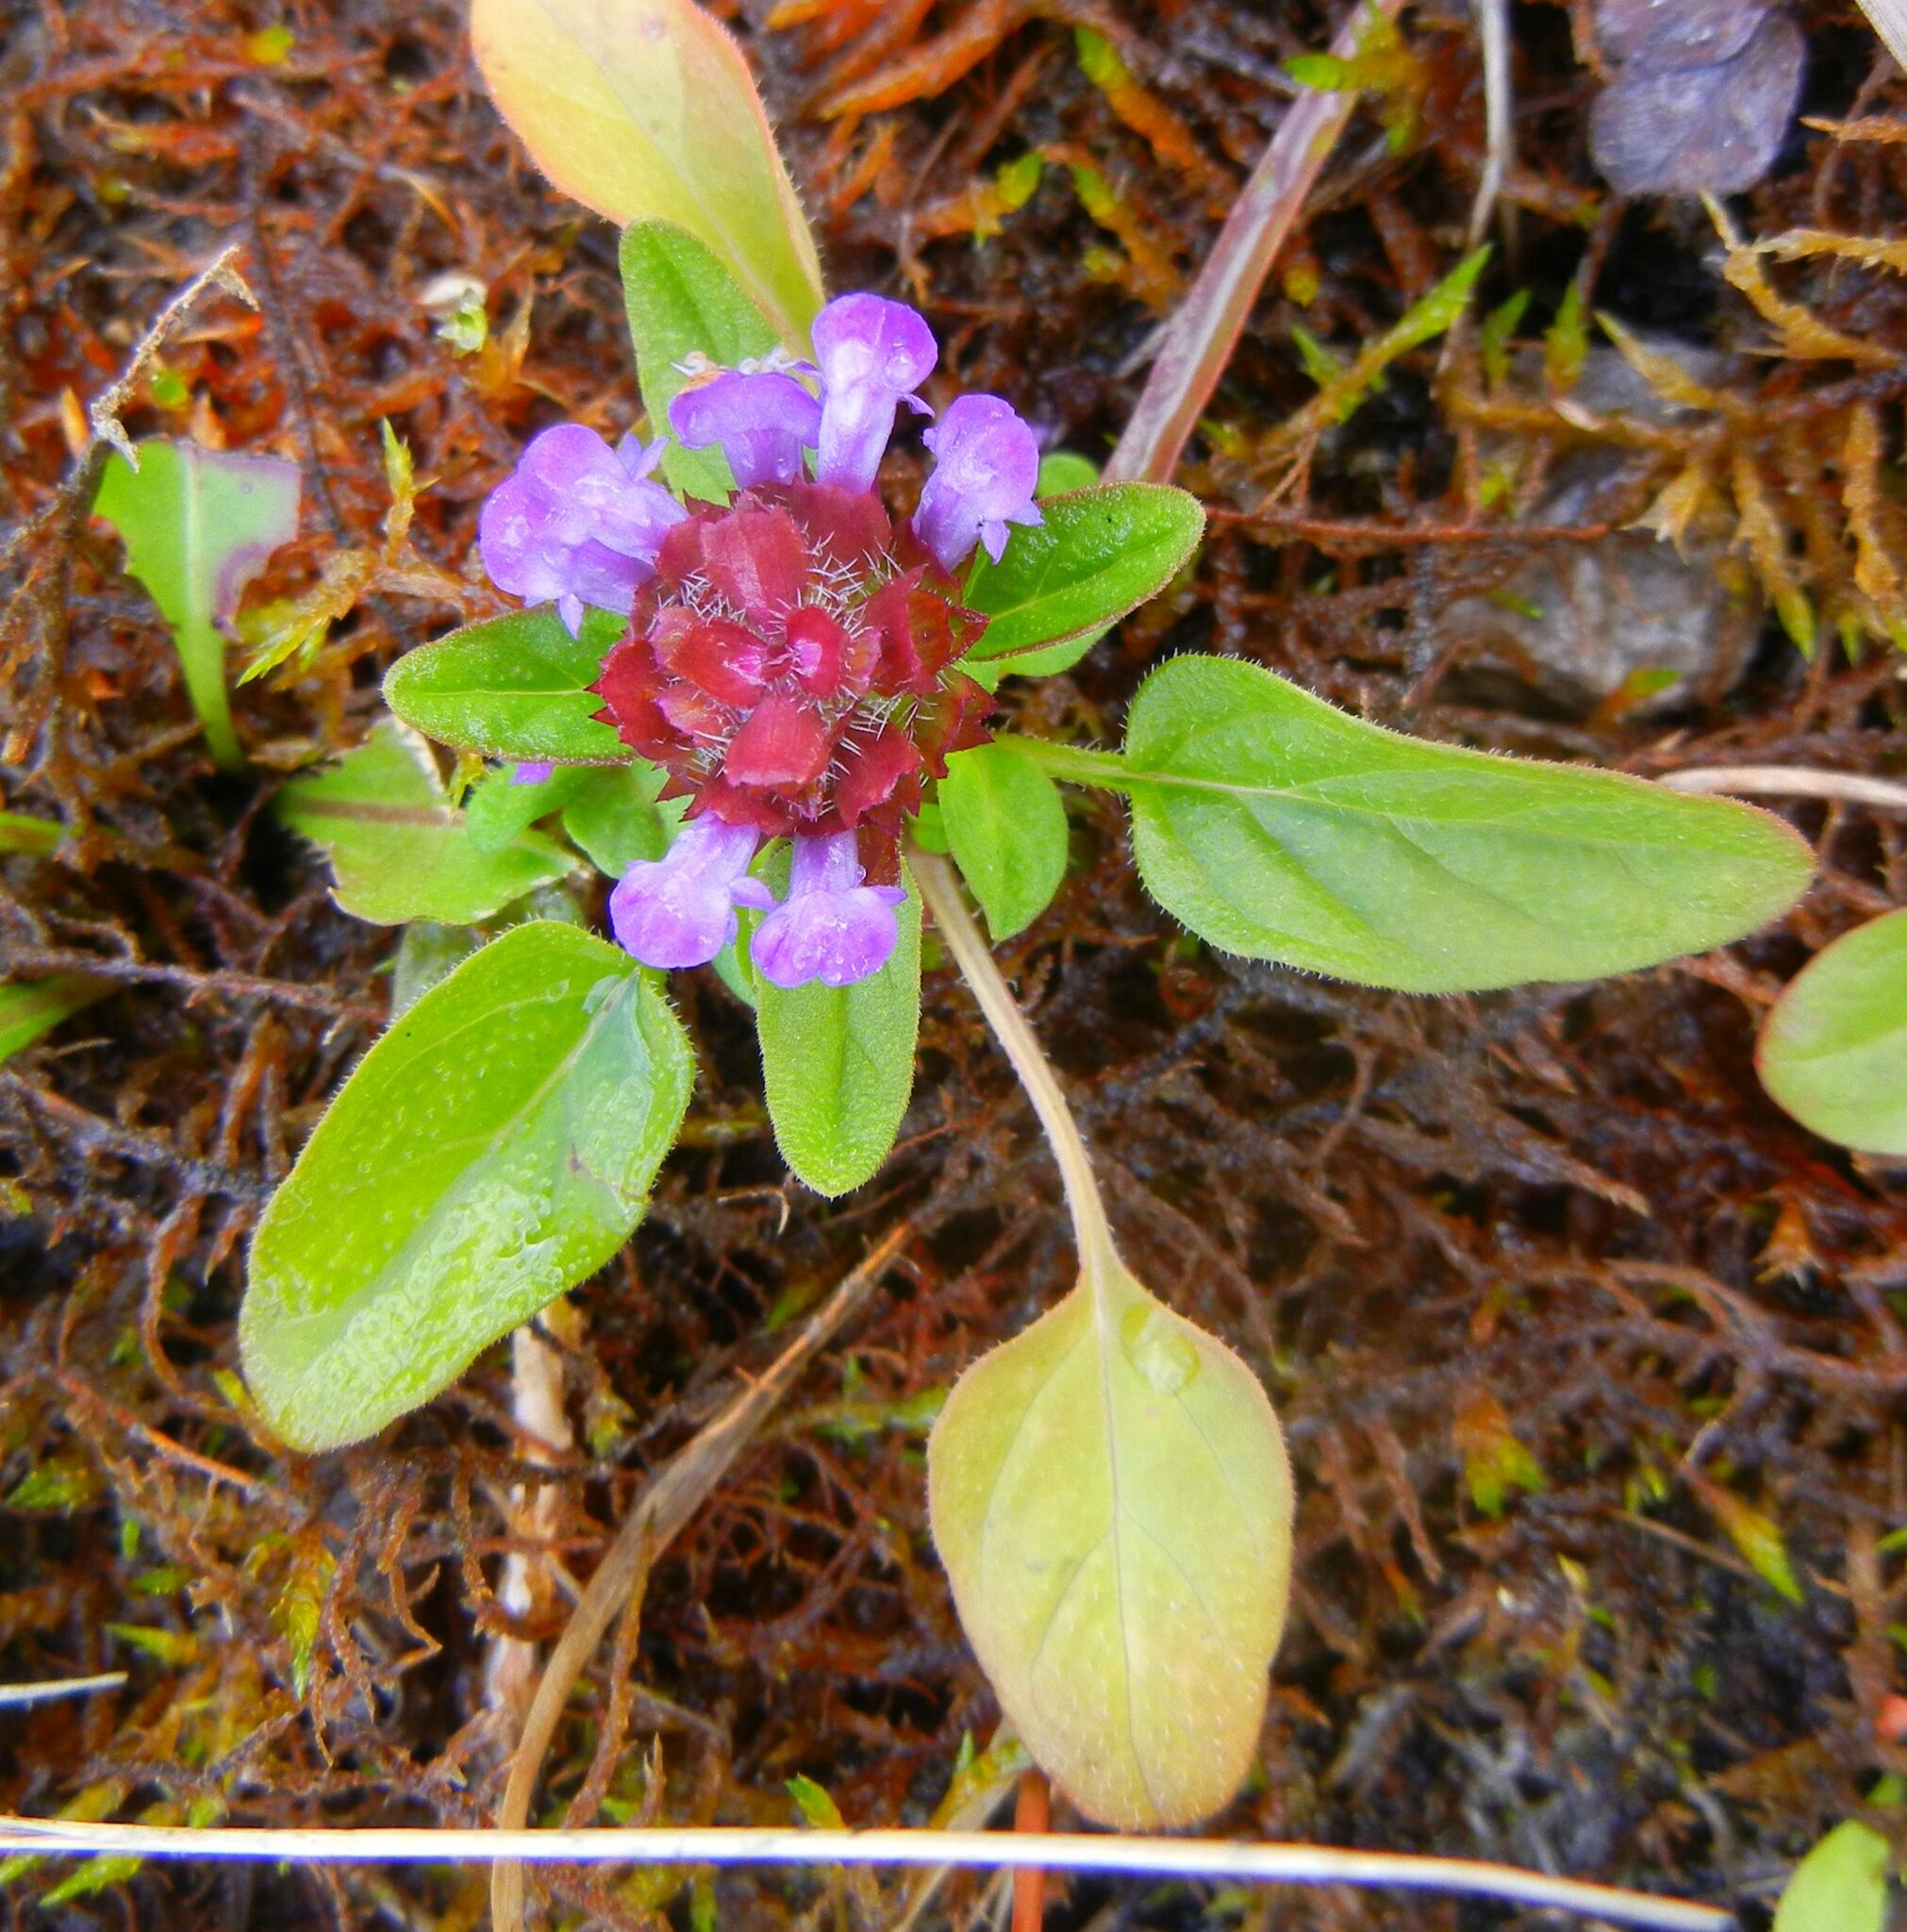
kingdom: Plantae
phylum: Tracheophyta
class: Magnoliopsida
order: Lamiales
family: Lamiaceae
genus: Prunella
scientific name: Prunella vulgaris
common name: Heal-all
